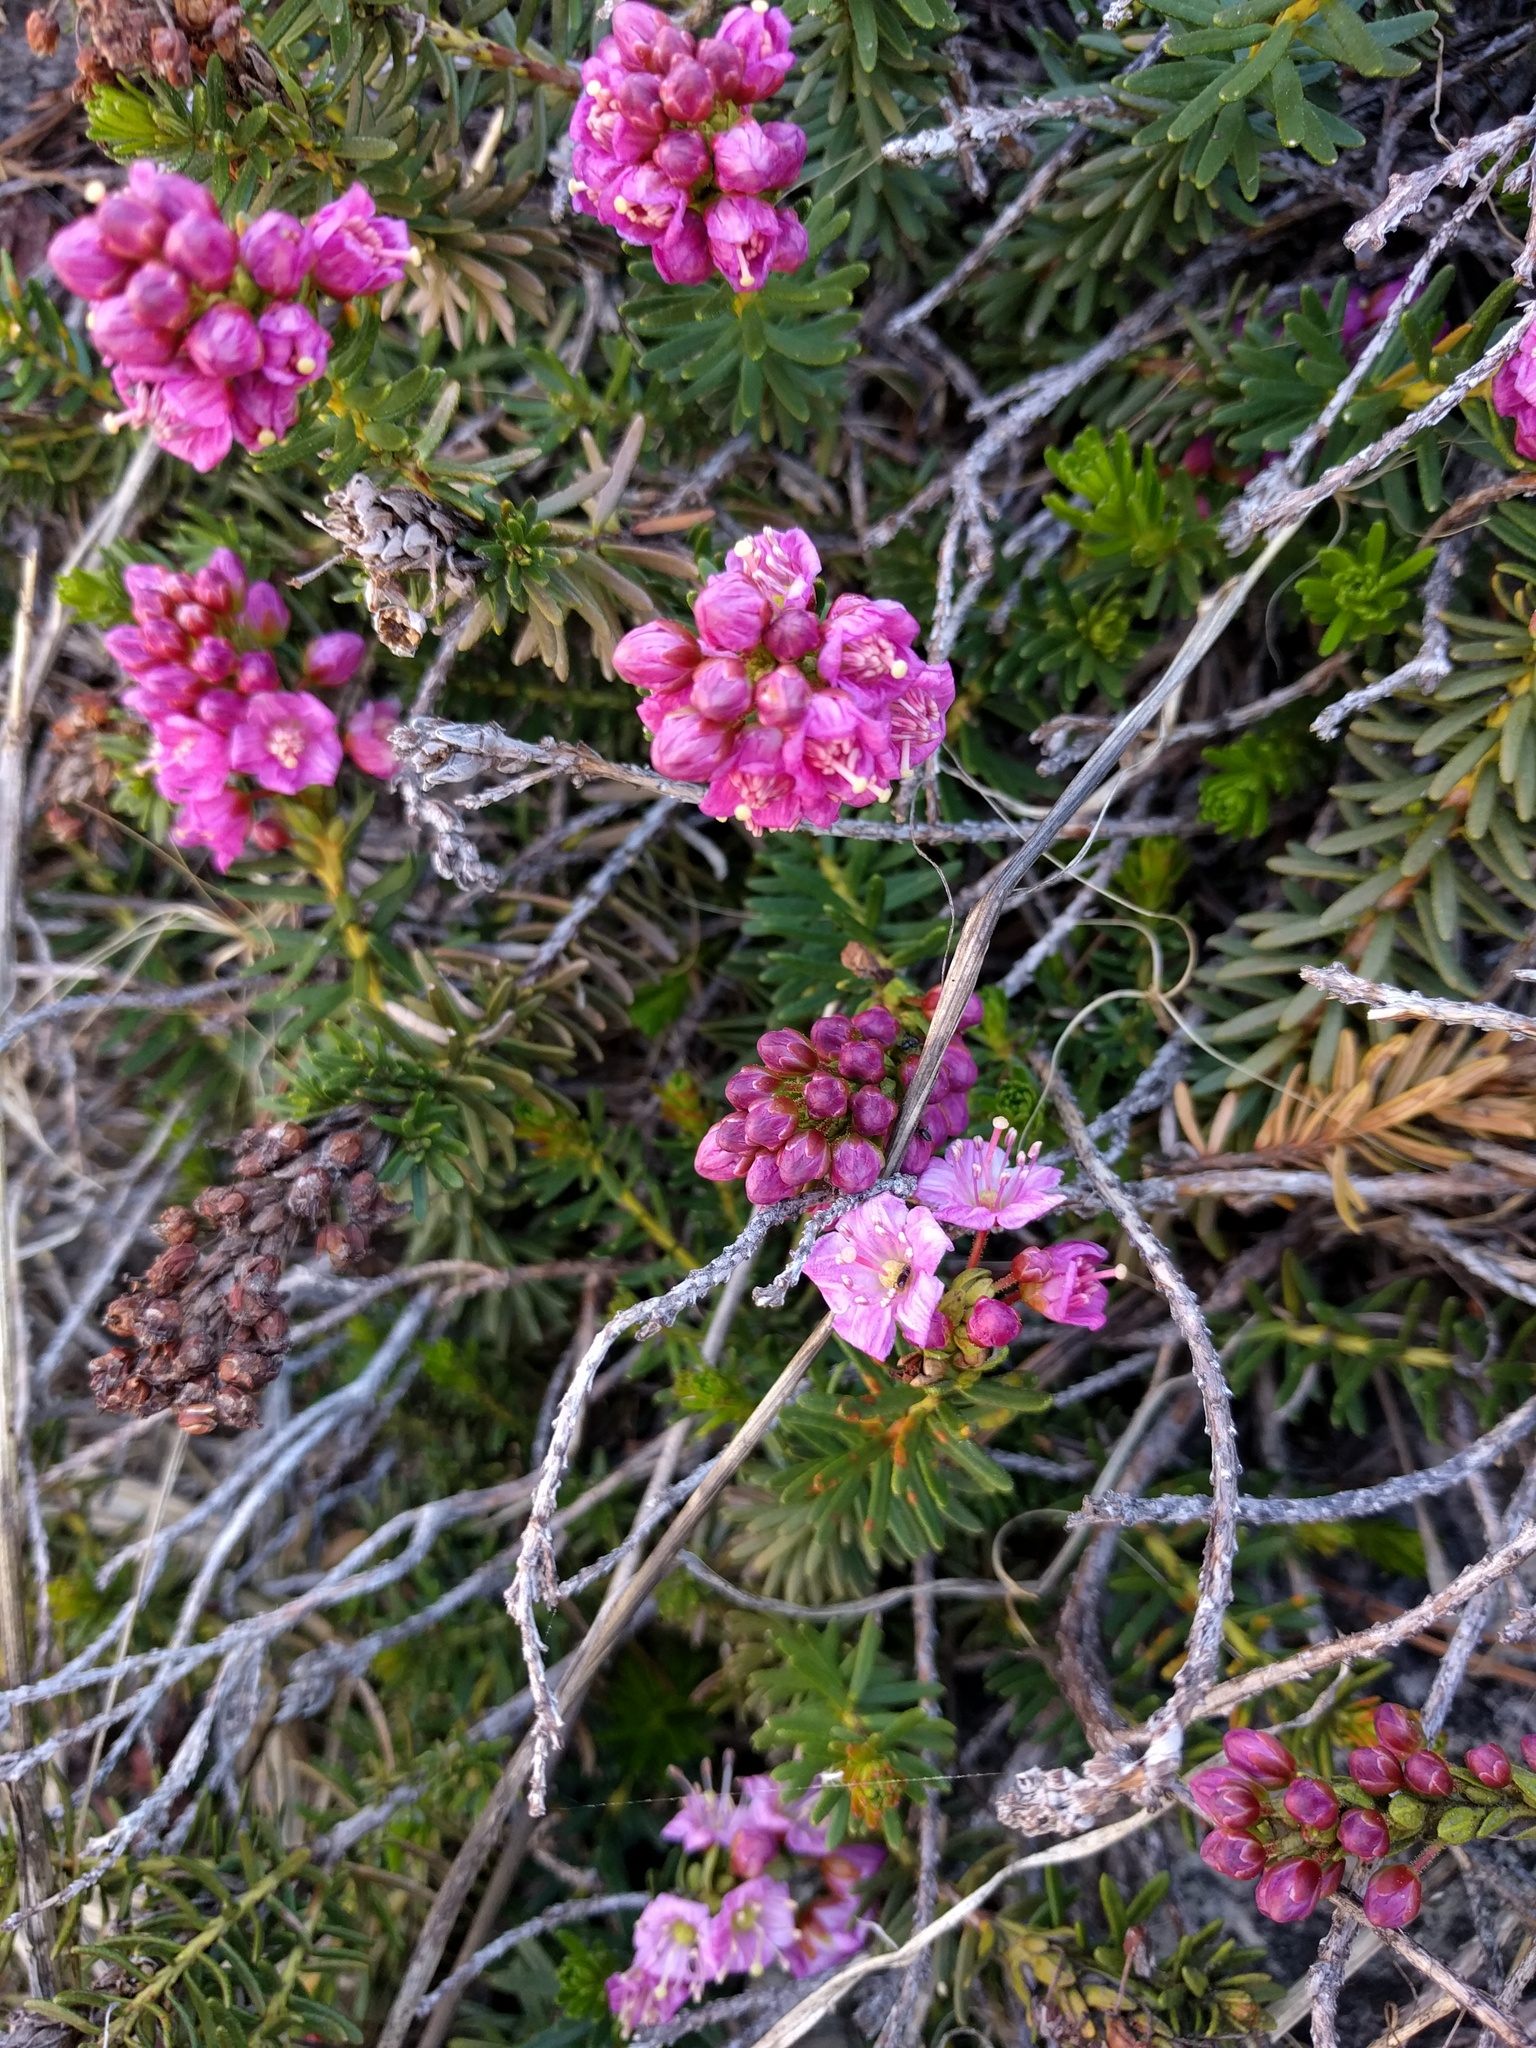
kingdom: Plantae
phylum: Tracheophyta
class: Magnoliopsida
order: Ericales
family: Ericaceae
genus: Phyllodoce
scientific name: Phyllodoce breweri
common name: Brewer's mountain-heather
